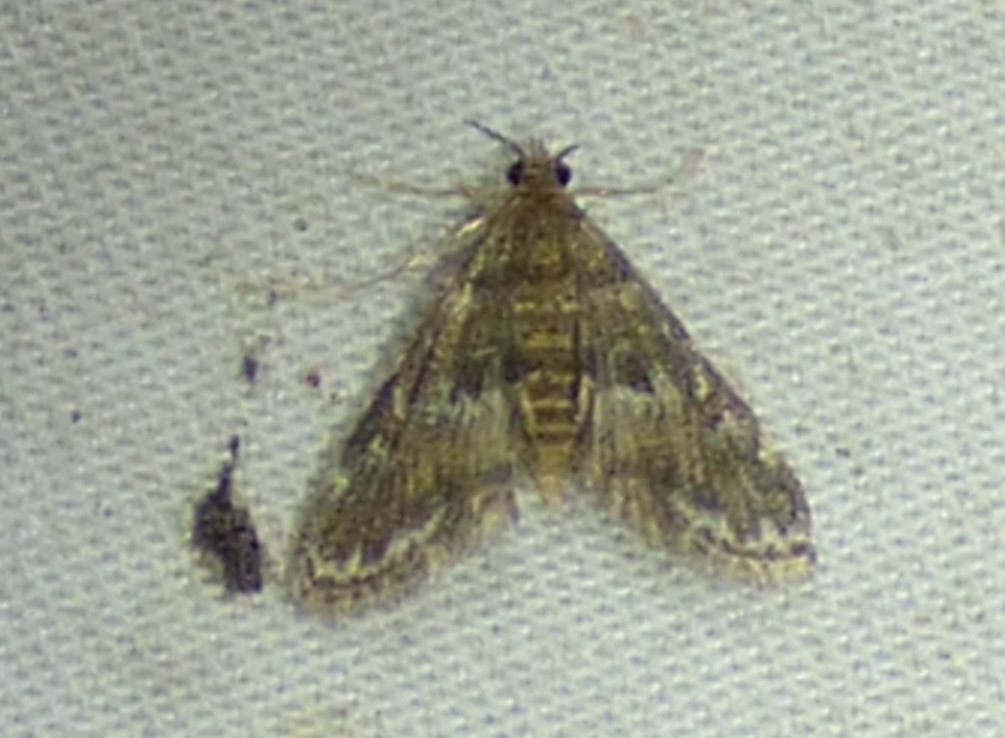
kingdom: Animalia
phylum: Arthropoda
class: Insecta
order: Lepidoptera
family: Crambidae
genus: Elophila
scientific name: Elophila obliteralis
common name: Waterlily leafcutter moth
